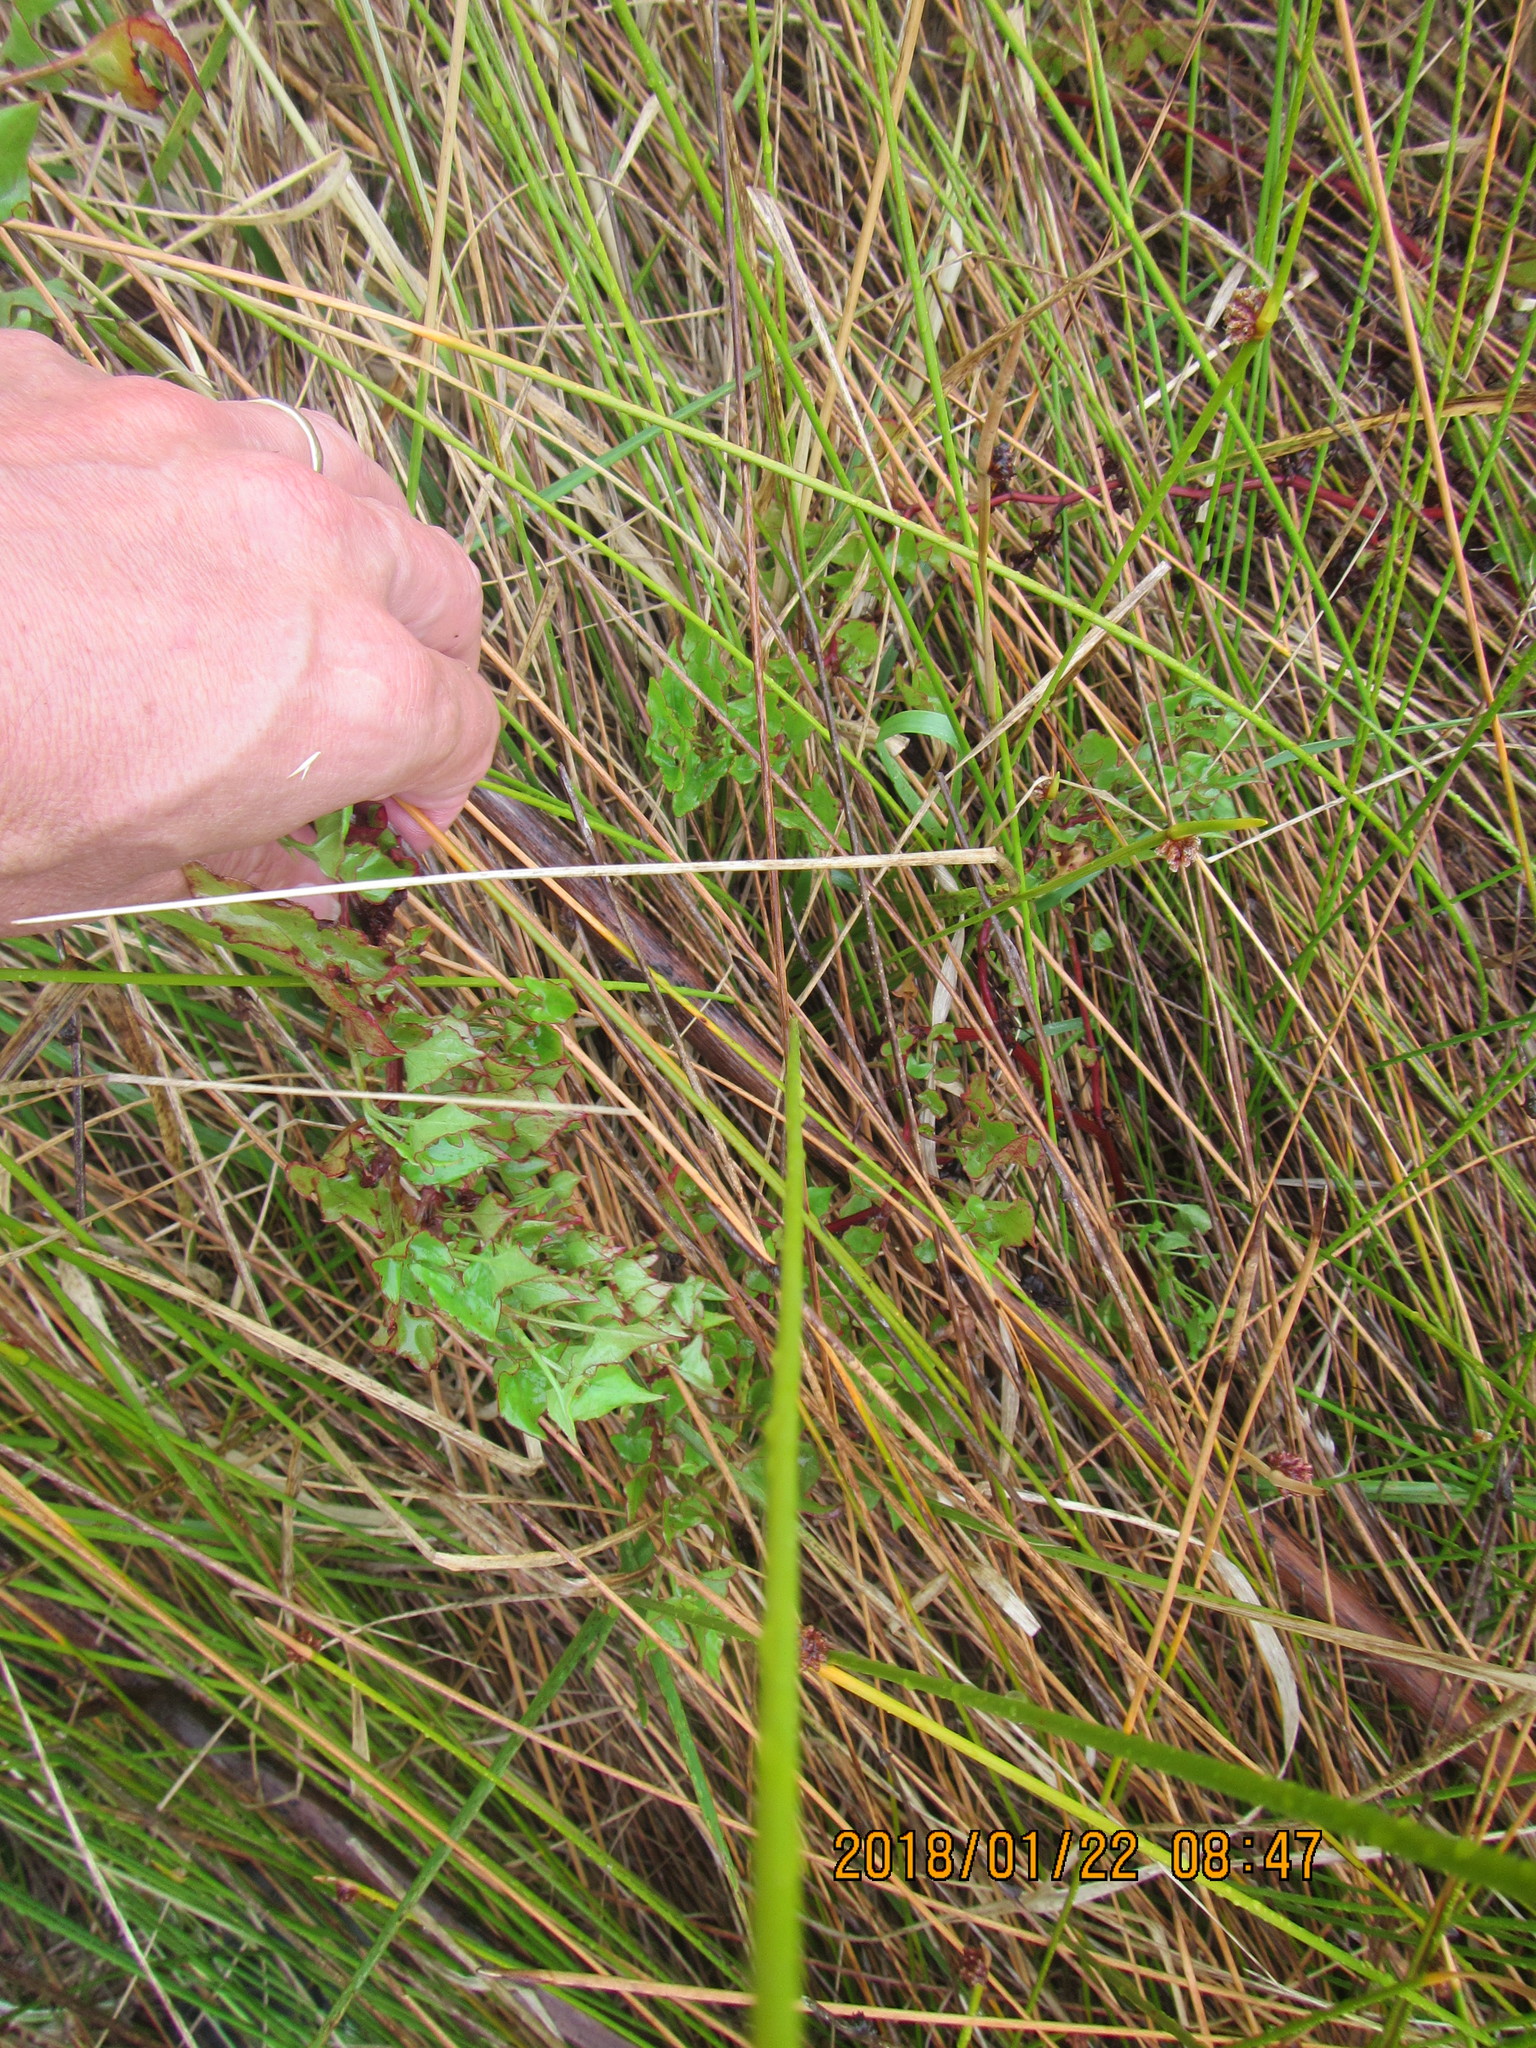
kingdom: Plantae
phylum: Tracheophyta
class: Magnoliopsida
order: Caryophyllales
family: Polygonaceae
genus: Rumex
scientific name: Rumex sagittatus
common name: Climbing dock
